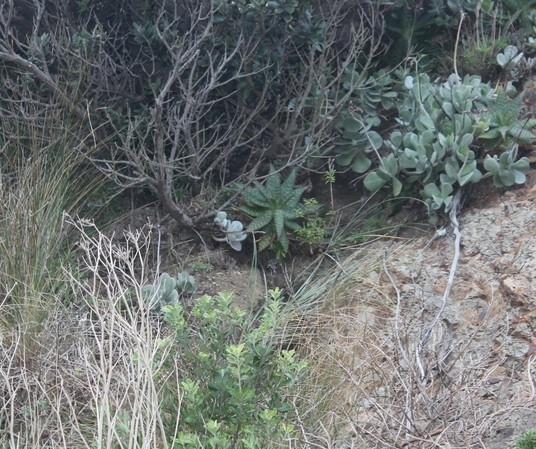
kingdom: Plantae
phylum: Tracheophyta
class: Liliopsida
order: Asparagales
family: Asphodelaceae
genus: Aloe
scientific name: Aloe maculata
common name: Broadleaf aloe
